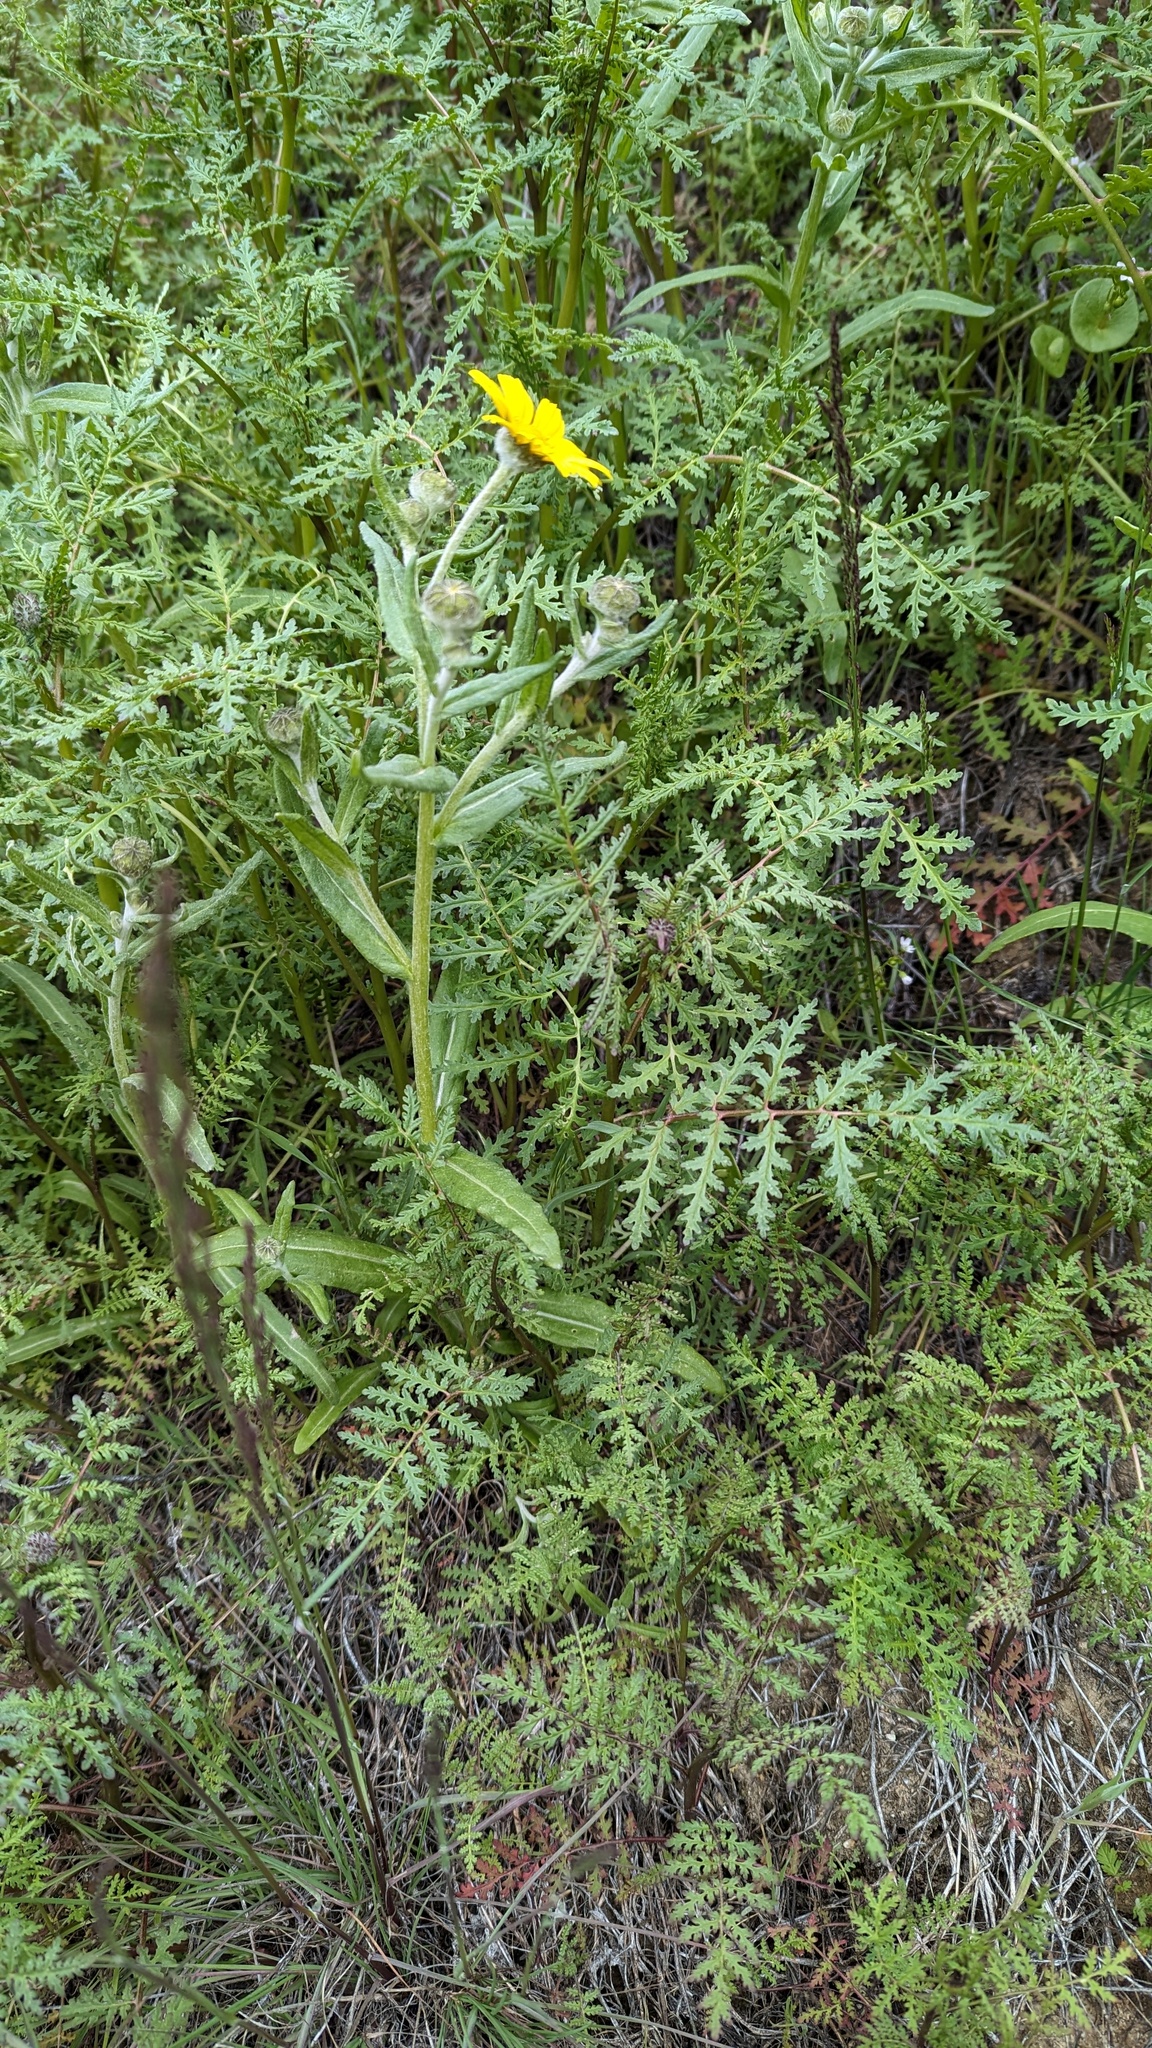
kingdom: Plantae
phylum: Tracheophyta
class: Magnoliopsida
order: Asterales
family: Asteraceae
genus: Monolopia
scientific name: Monolopia lanceolata
